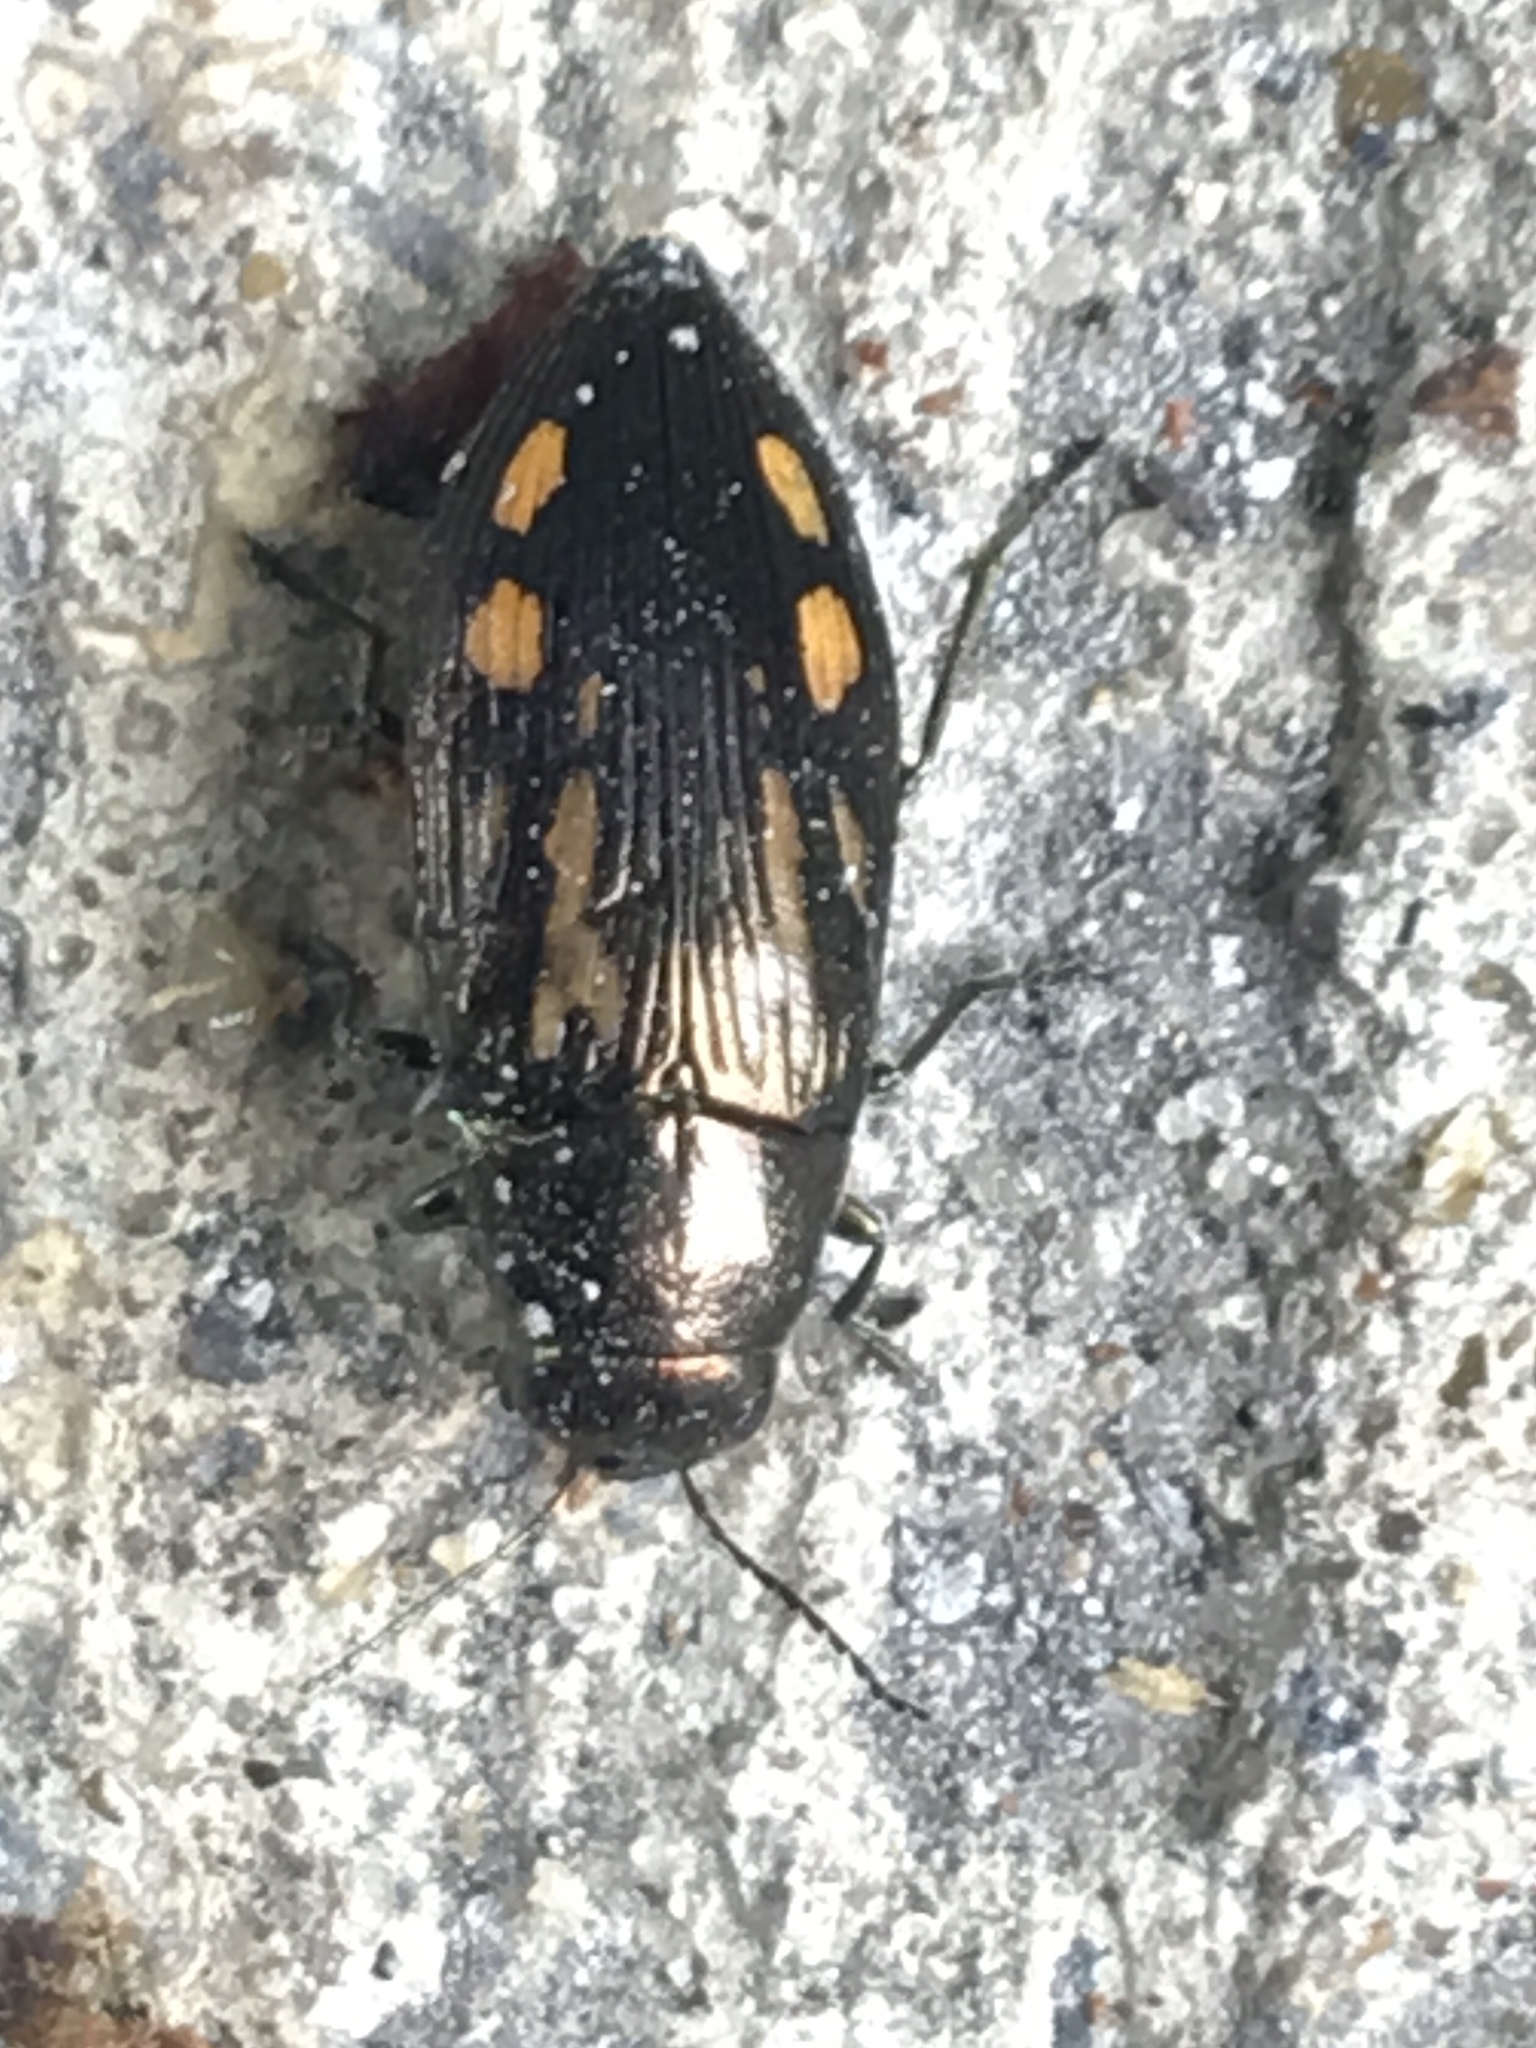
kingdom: Animalia
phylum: Arthropoda
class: Insecta
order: Coleoptera
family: Buprestidae
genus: Buprestis
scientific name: Buprestis maculipennis
